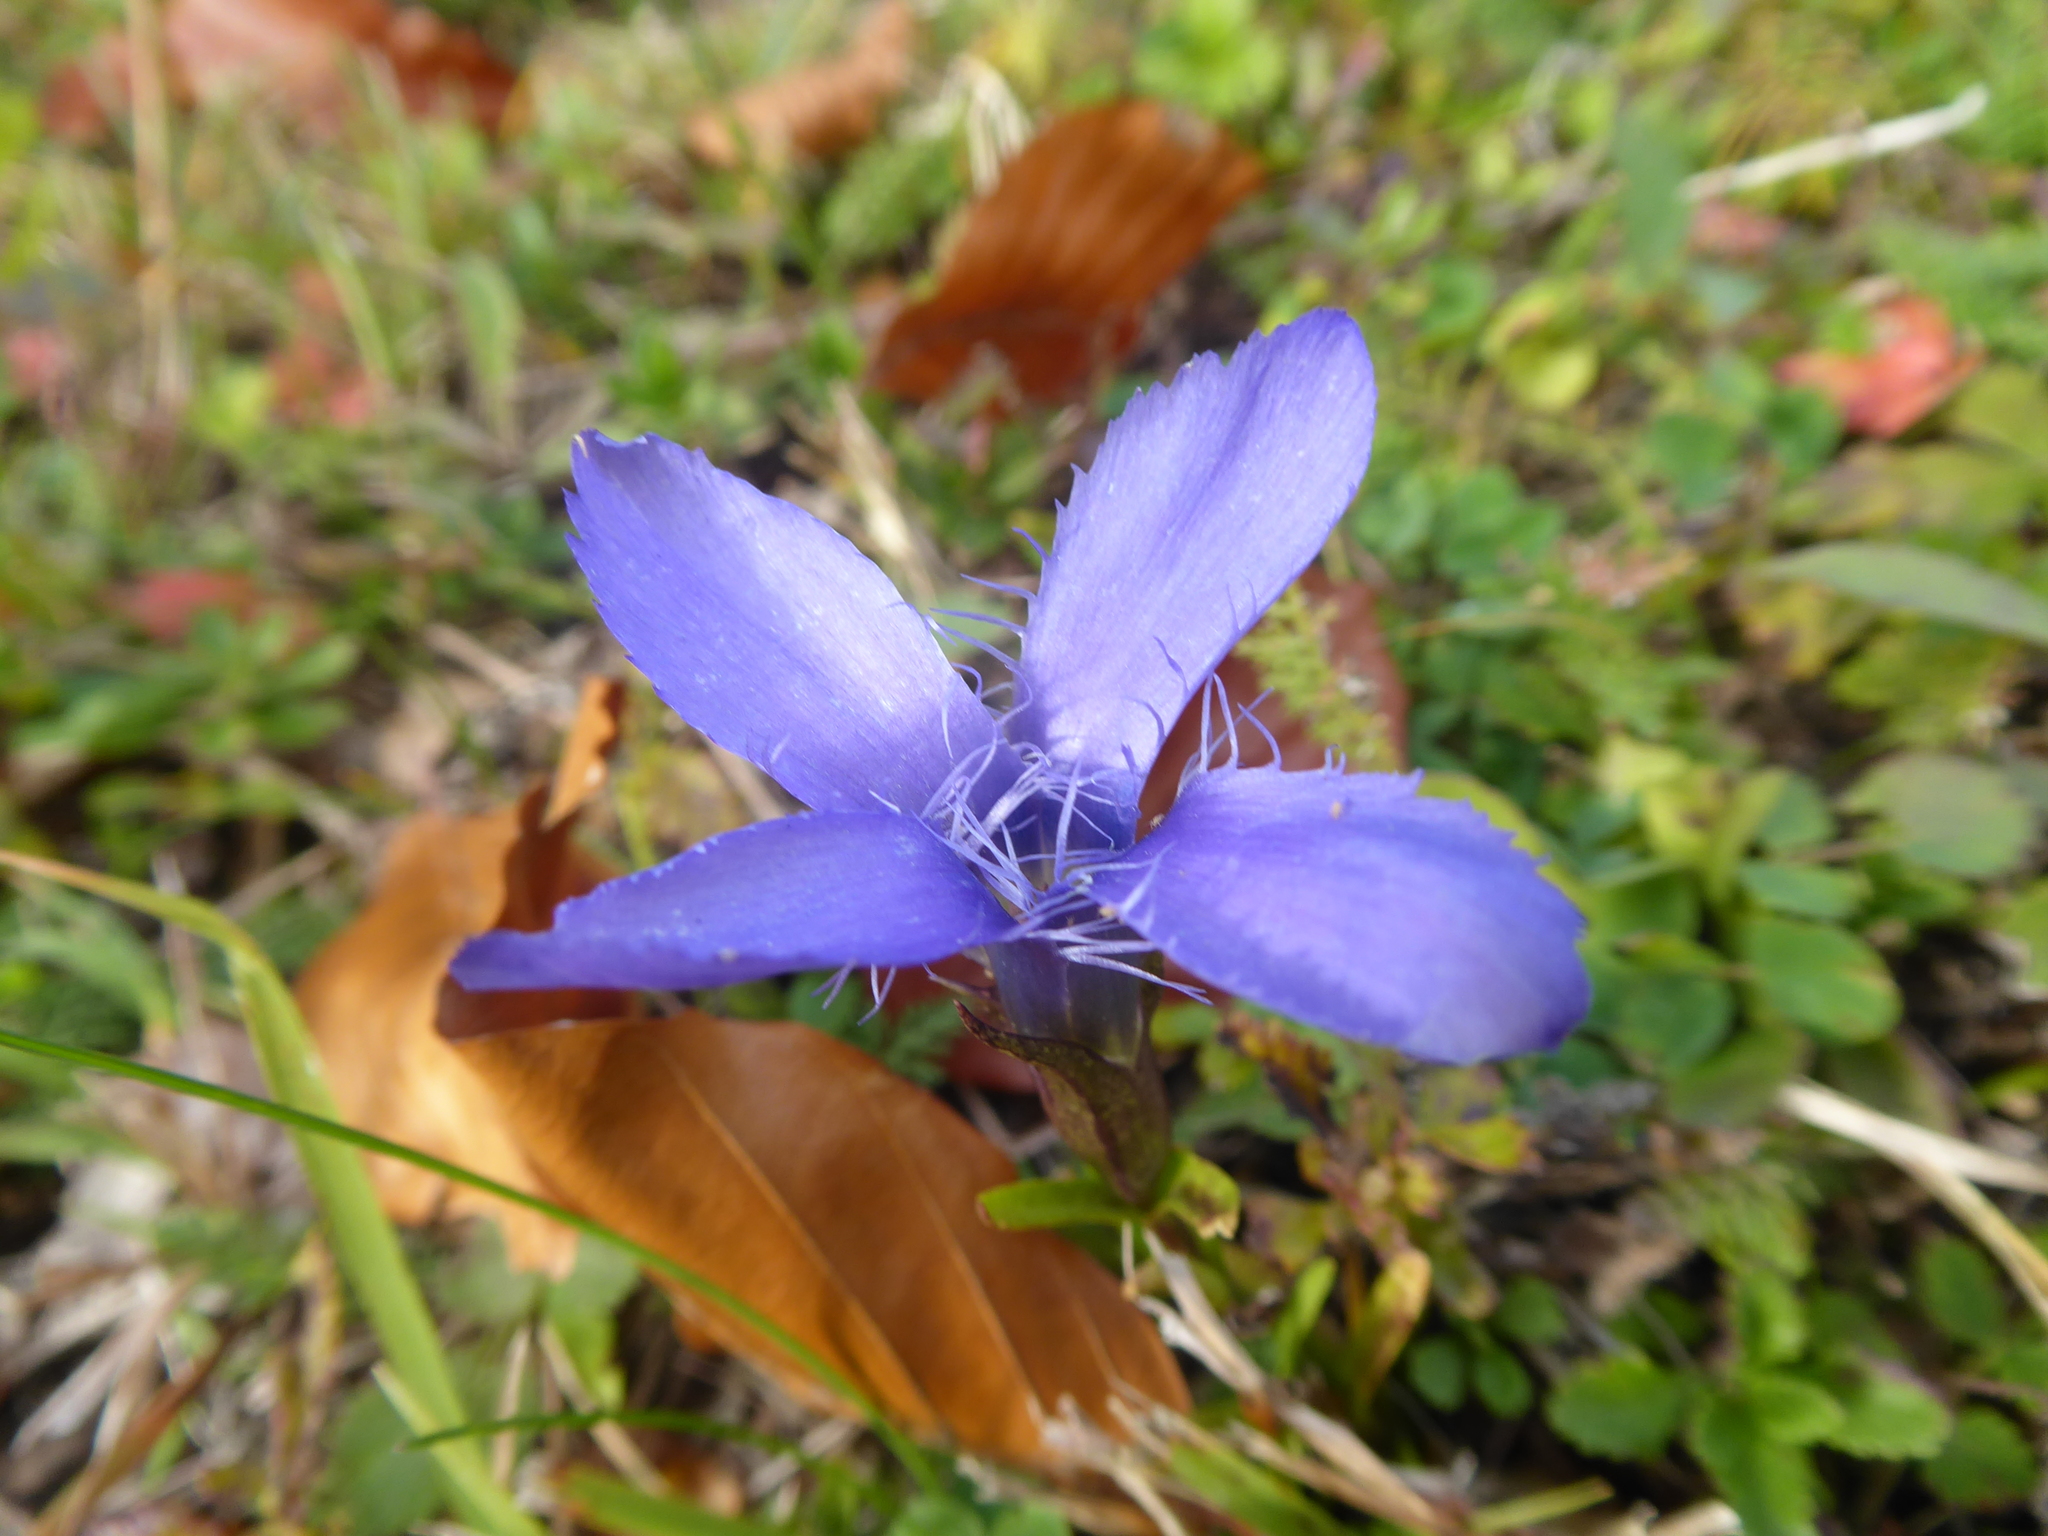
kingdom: Plantae
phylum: Tracheophyta
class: Magnoliopsida
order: Gentianales
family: Gentianaceae
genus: Gentianopsis
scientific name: Gentianopsis ciliata
